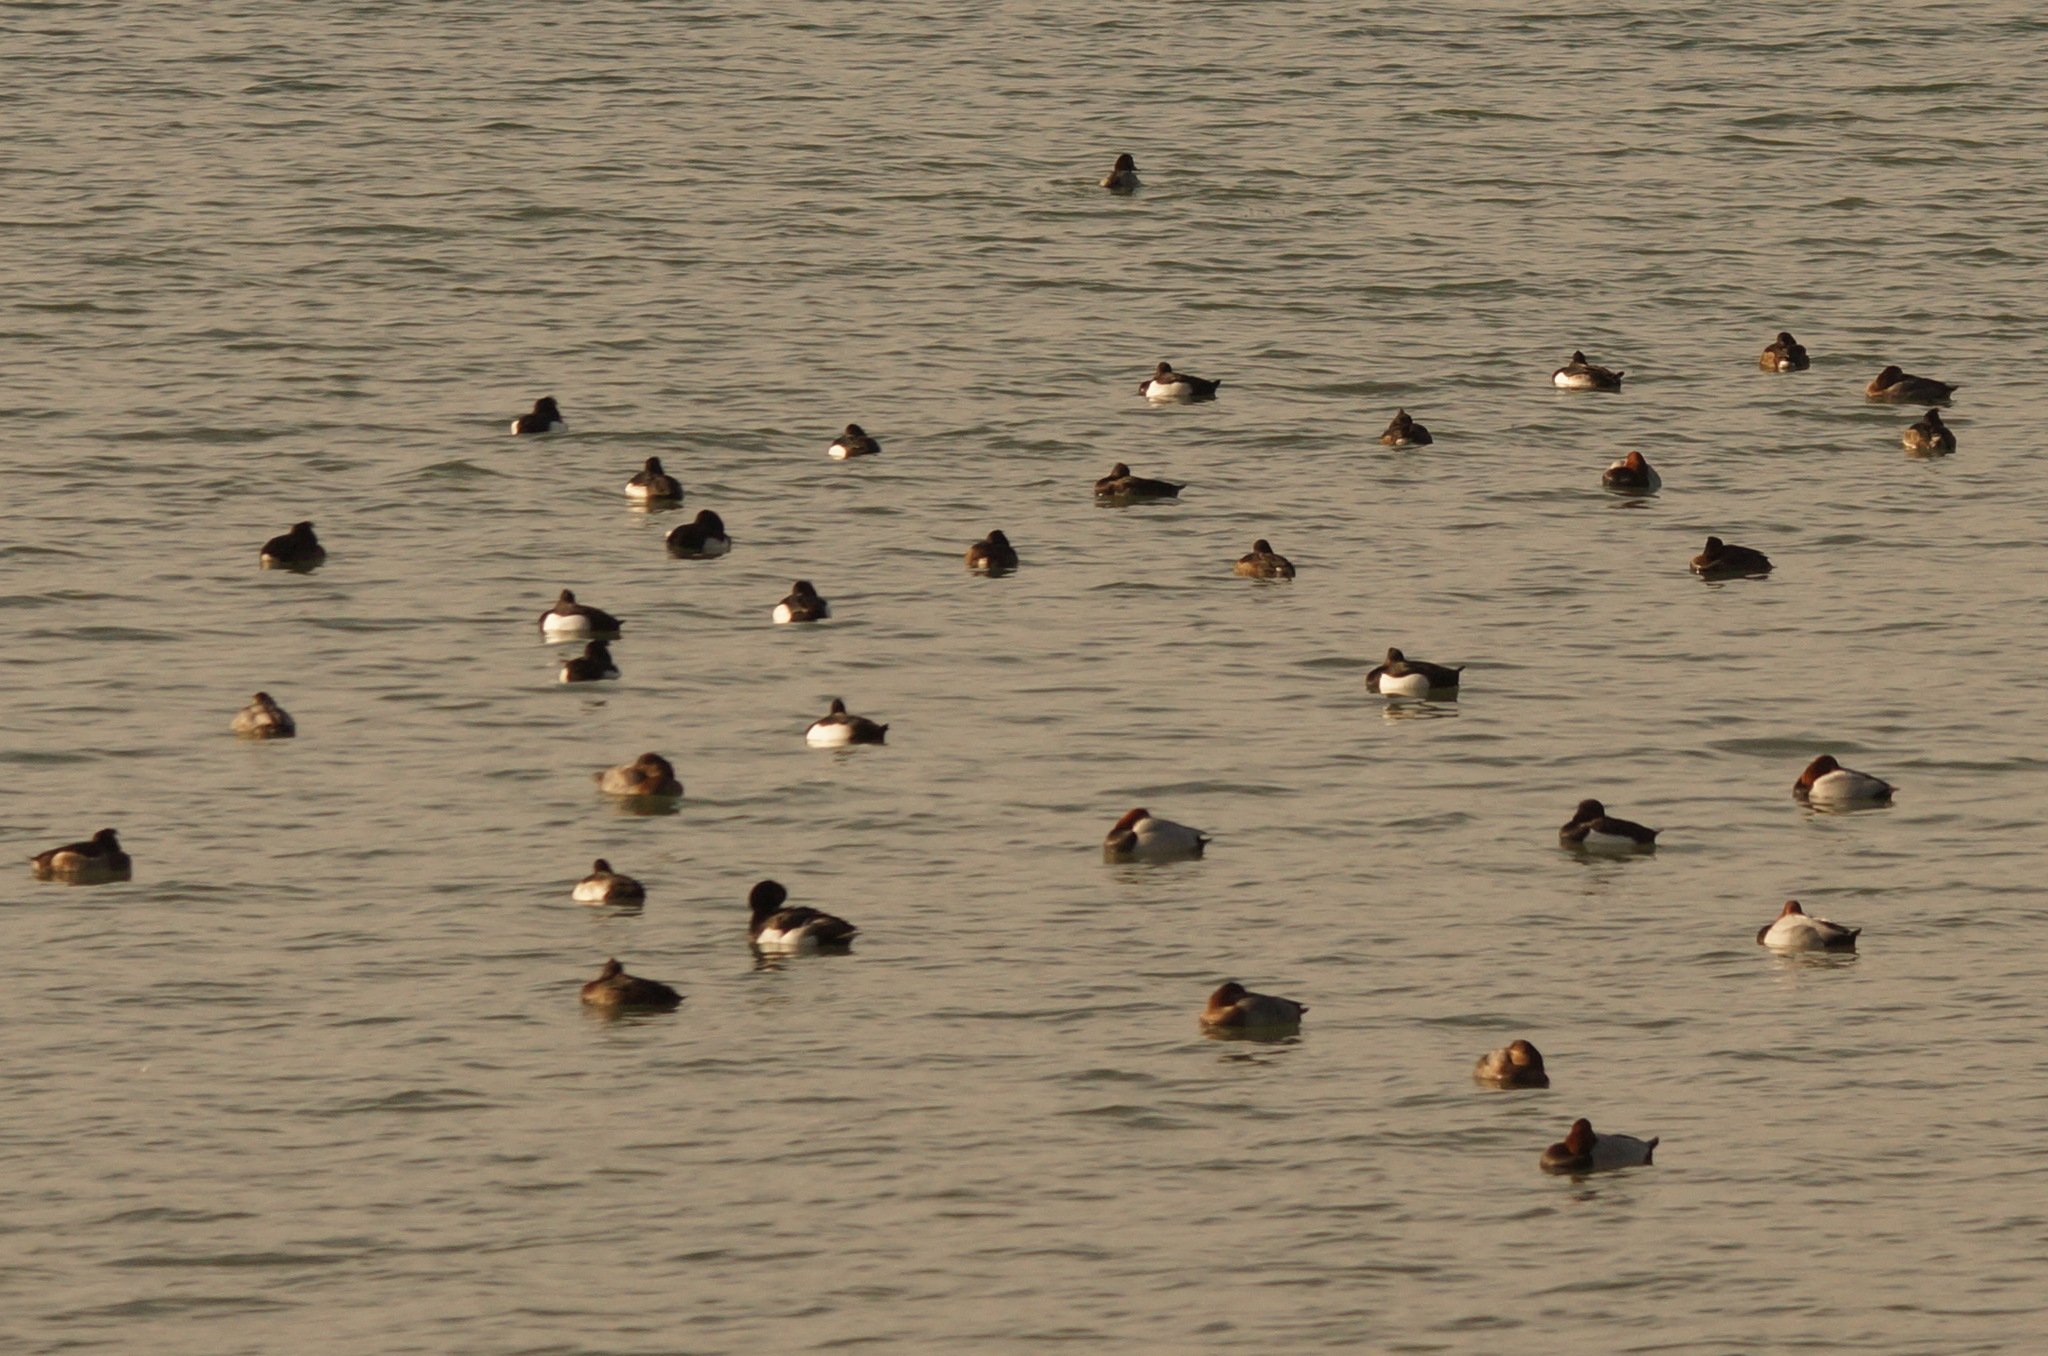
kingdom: Animalia
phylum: Chordata
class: Aves
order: Anseriformes
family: Anatidae
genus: Aythya
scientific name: Aythya ferina
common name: Common pochard
